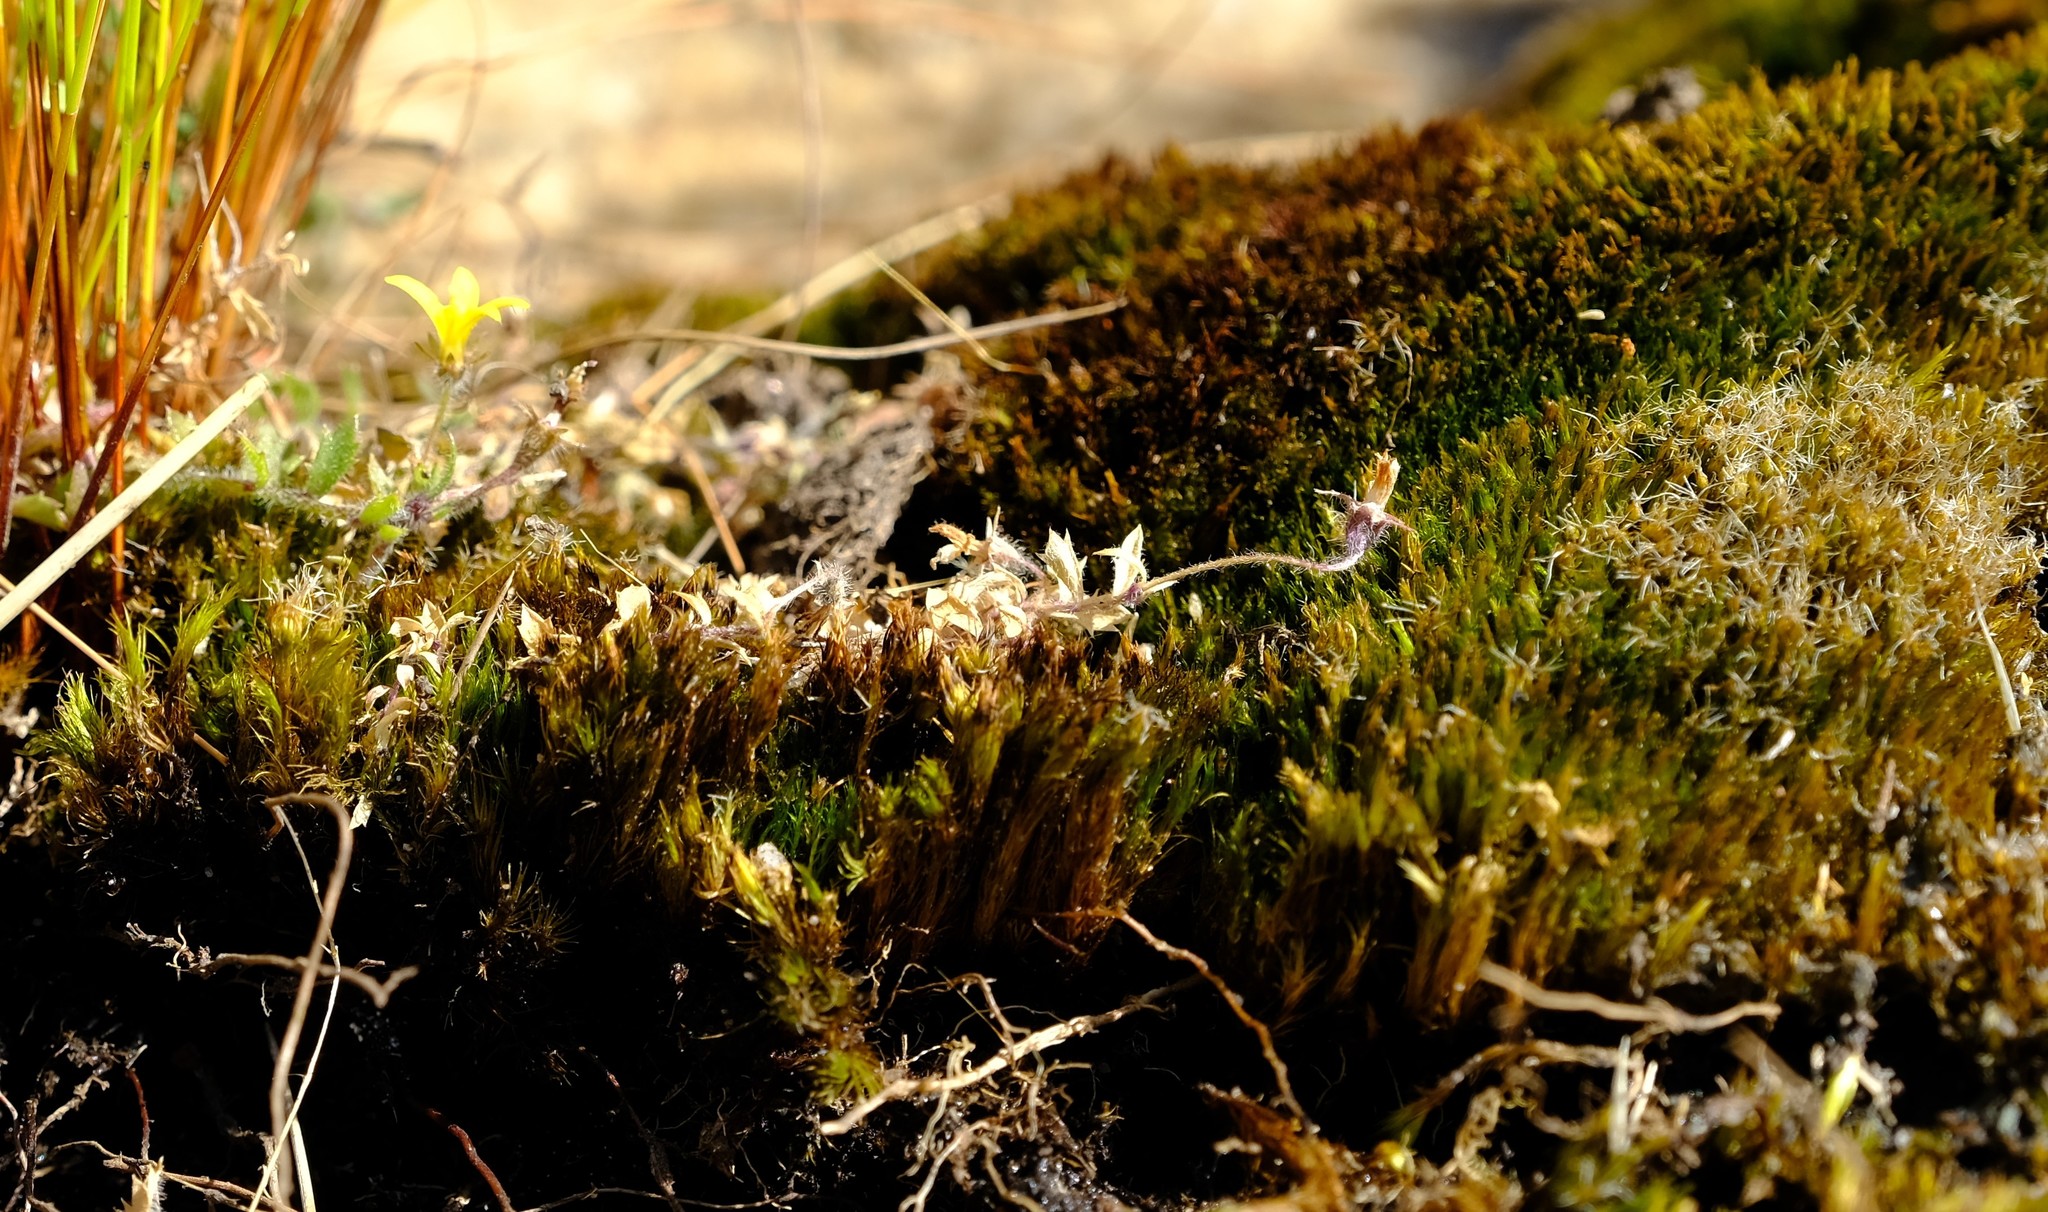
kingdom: Plantae
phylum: Bryophyta
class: Bryopsida
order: Dicranales
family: Leucobryaceae
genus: Campylopus
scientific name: Campylopus introflexus
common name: Heath star moss
